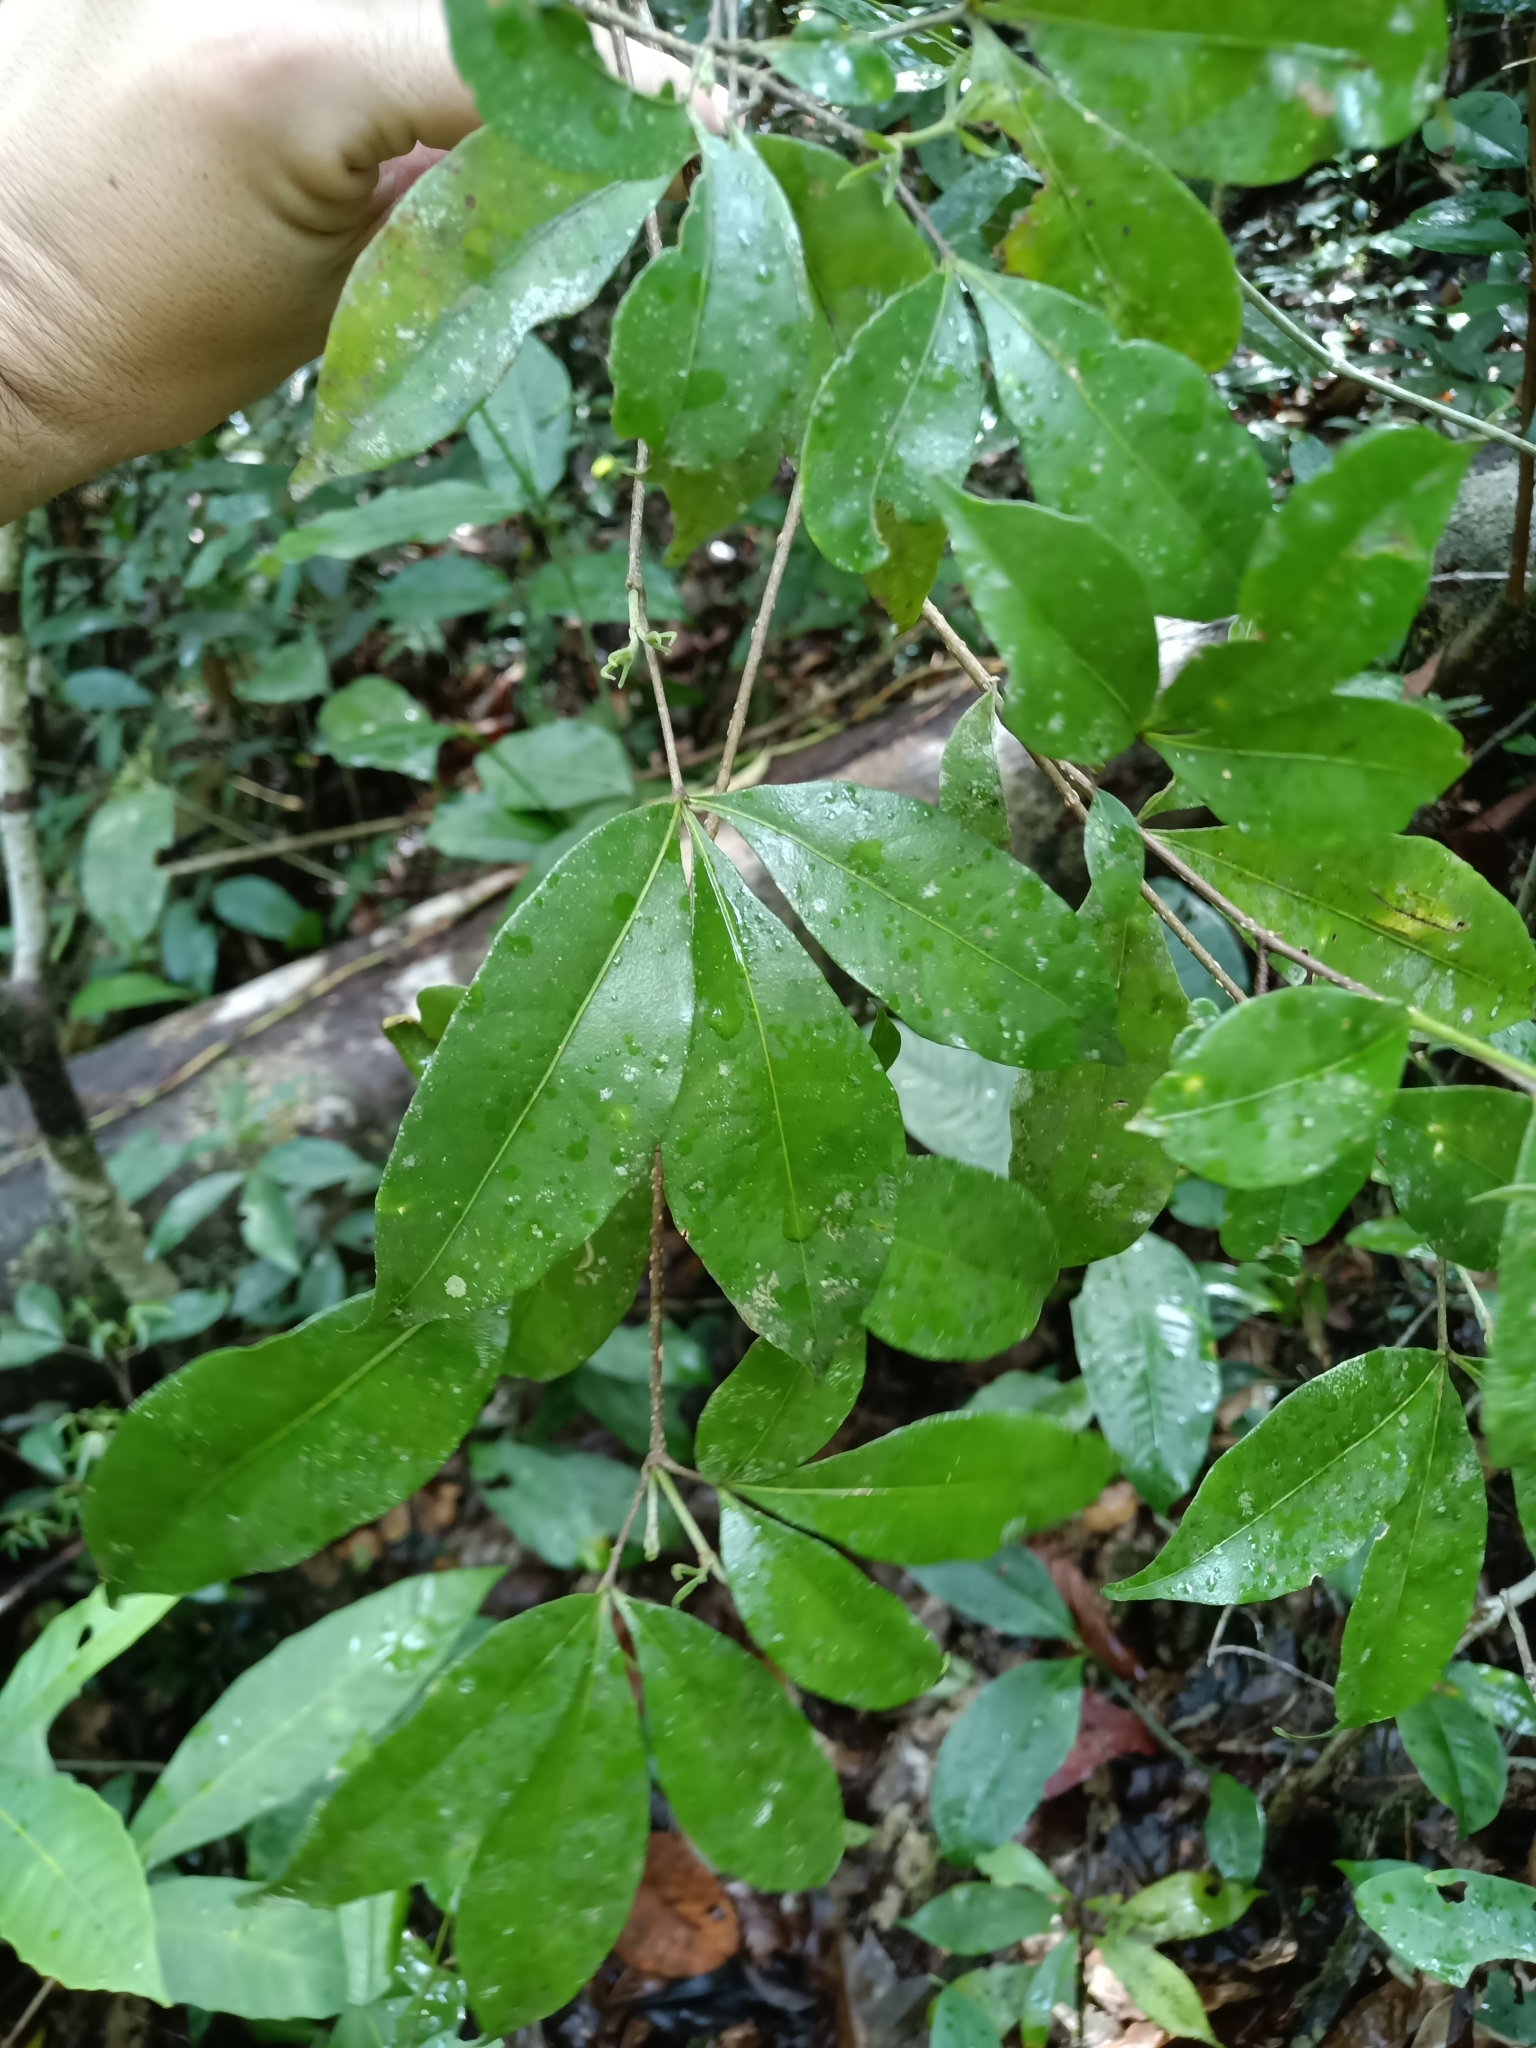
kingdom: Plantae
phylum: Tracheophyta
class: Magnoliopsida
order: Sapindales
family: Rutaceae
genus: Raputia
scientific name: Raputia aromatica
